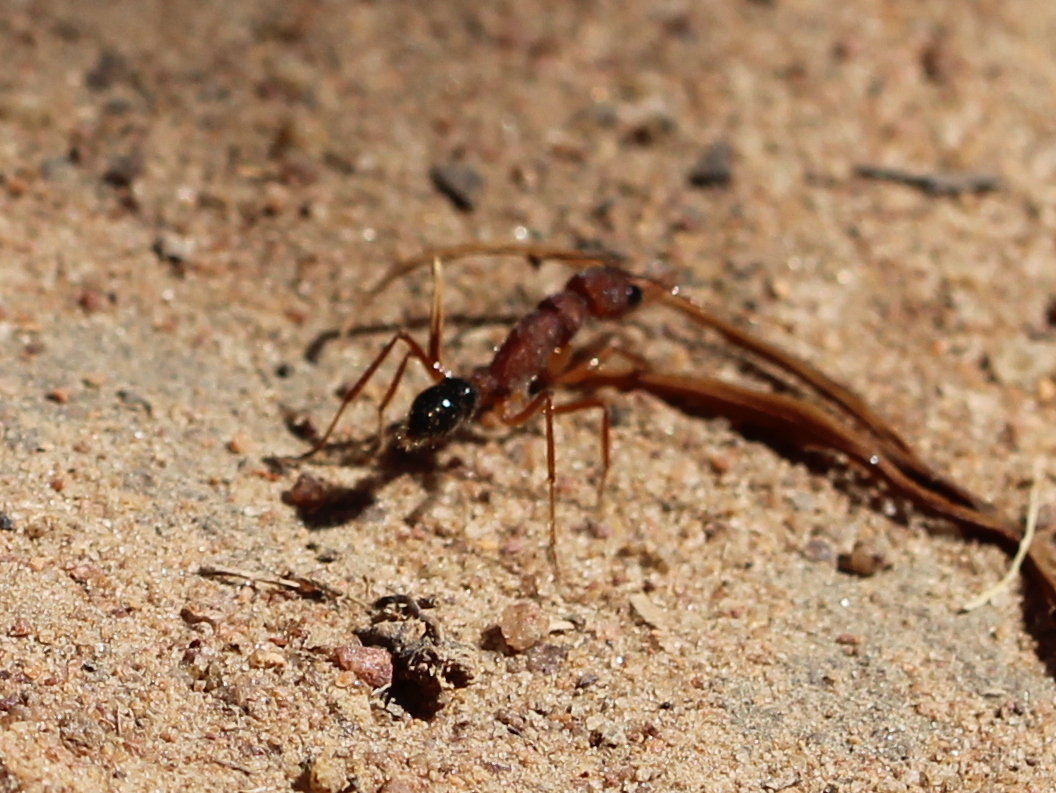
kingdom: Animalia
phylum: Arthropoda
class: Insecta
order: Hymenoptera
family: Formicidae
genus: Harpegnathos
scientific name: Harpegnathos saltator
